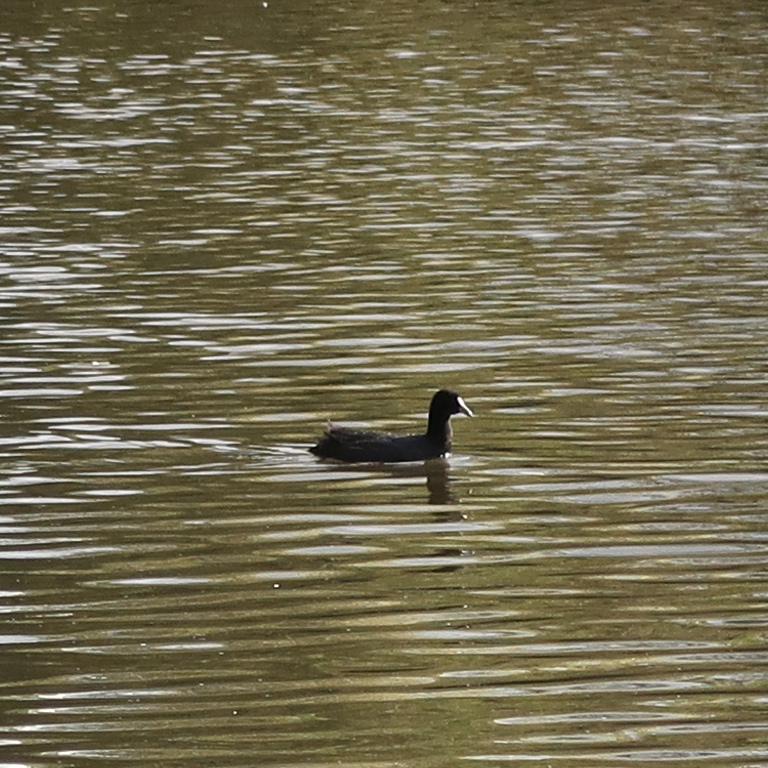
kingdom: Animalia
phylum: Chordata
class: Aves
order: Gruiformes
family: Rallidae
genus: Fulica
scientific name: Fulica atra
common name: Eurasian coot
